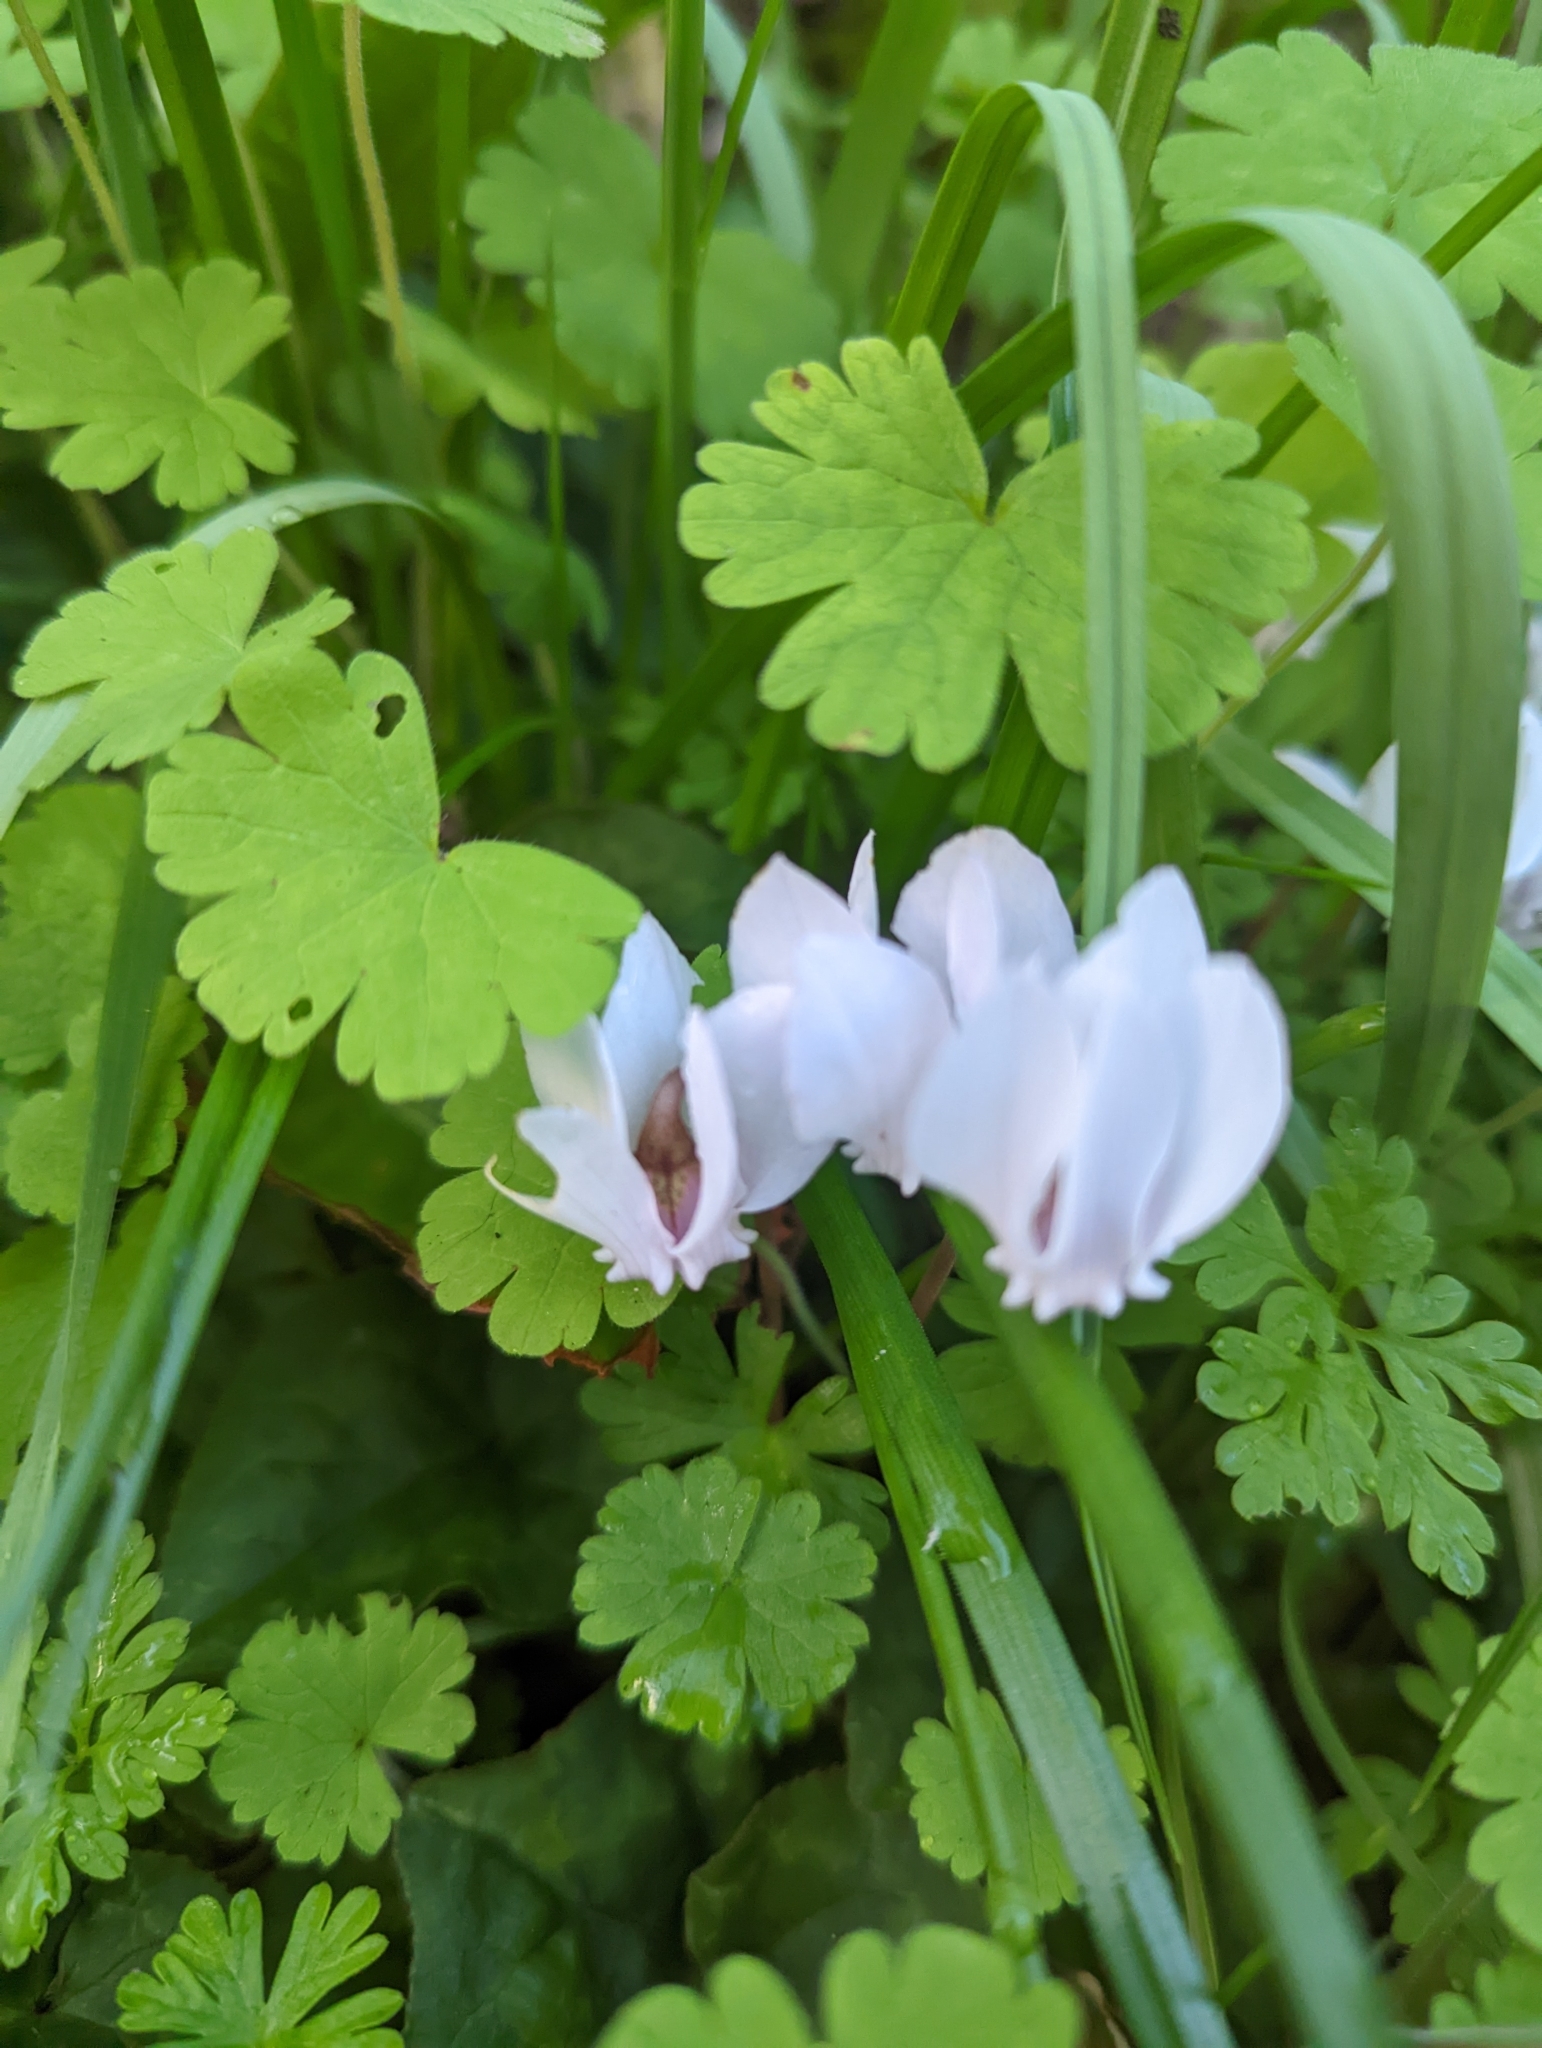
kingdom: Plantae
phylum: Tracheophyta
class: Magnoliopsida
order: Ericales
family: Primulaceae
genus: Cyclamen
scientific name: Cyclamen hederifolium
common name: Sowbread
